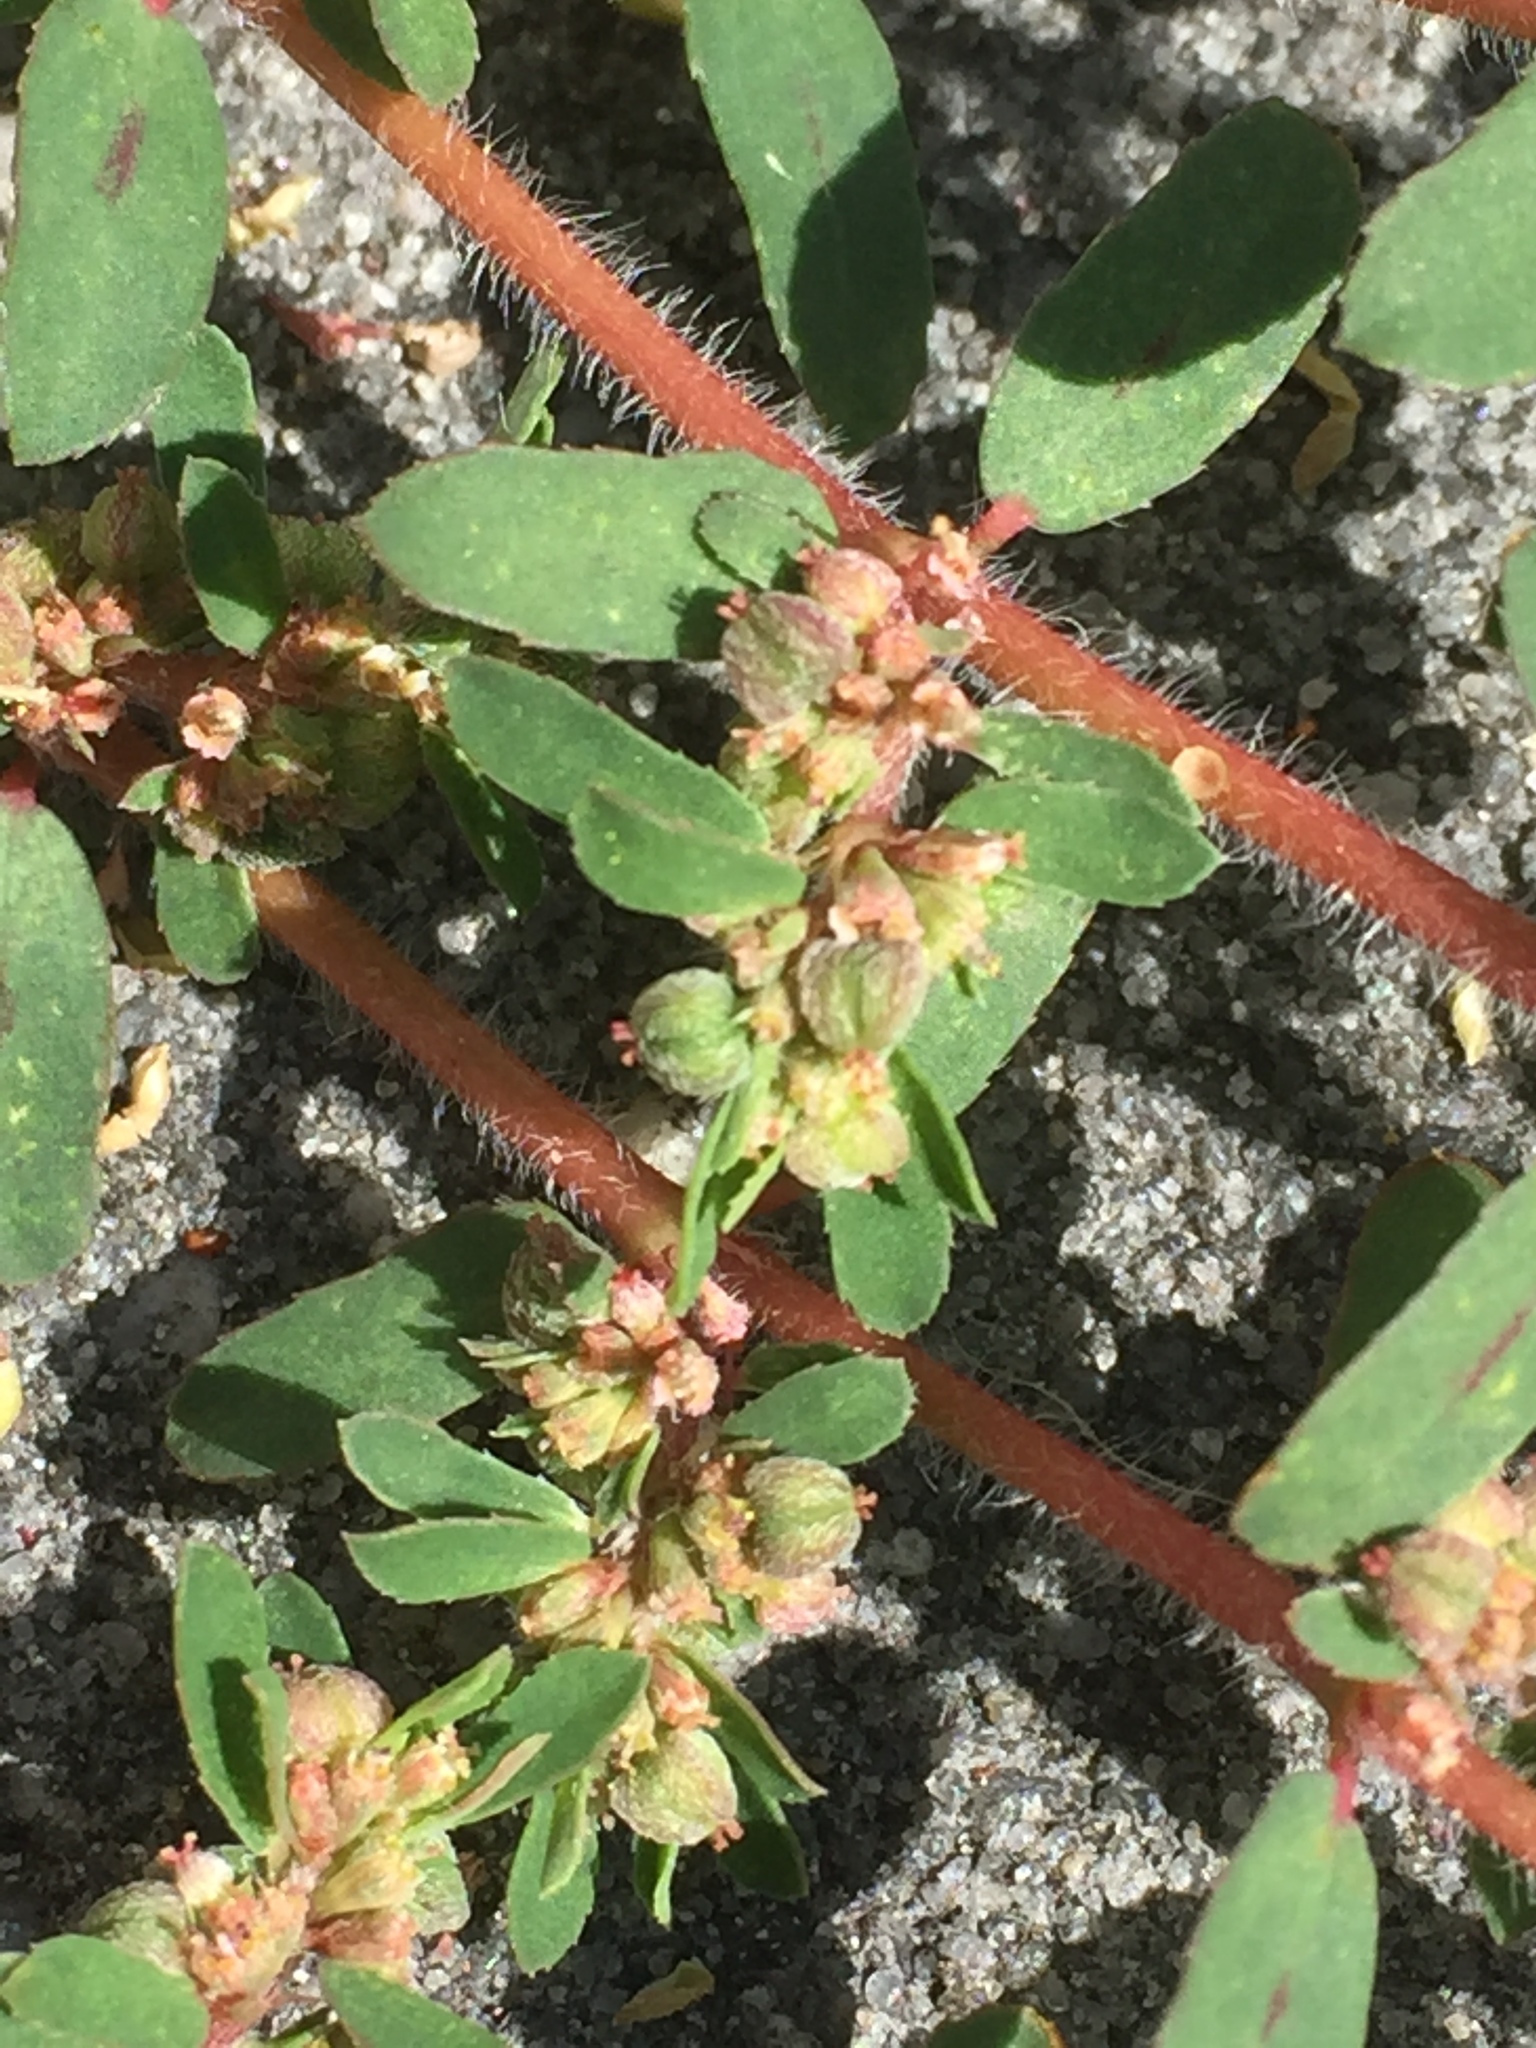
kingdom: Plantae
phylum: Tracheophyta
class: Magnoliopsida
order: Malpighiales
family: Euphorbiaceae
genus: Euphorbia
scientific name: Euphorbia maculata
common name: Spotted spurge
